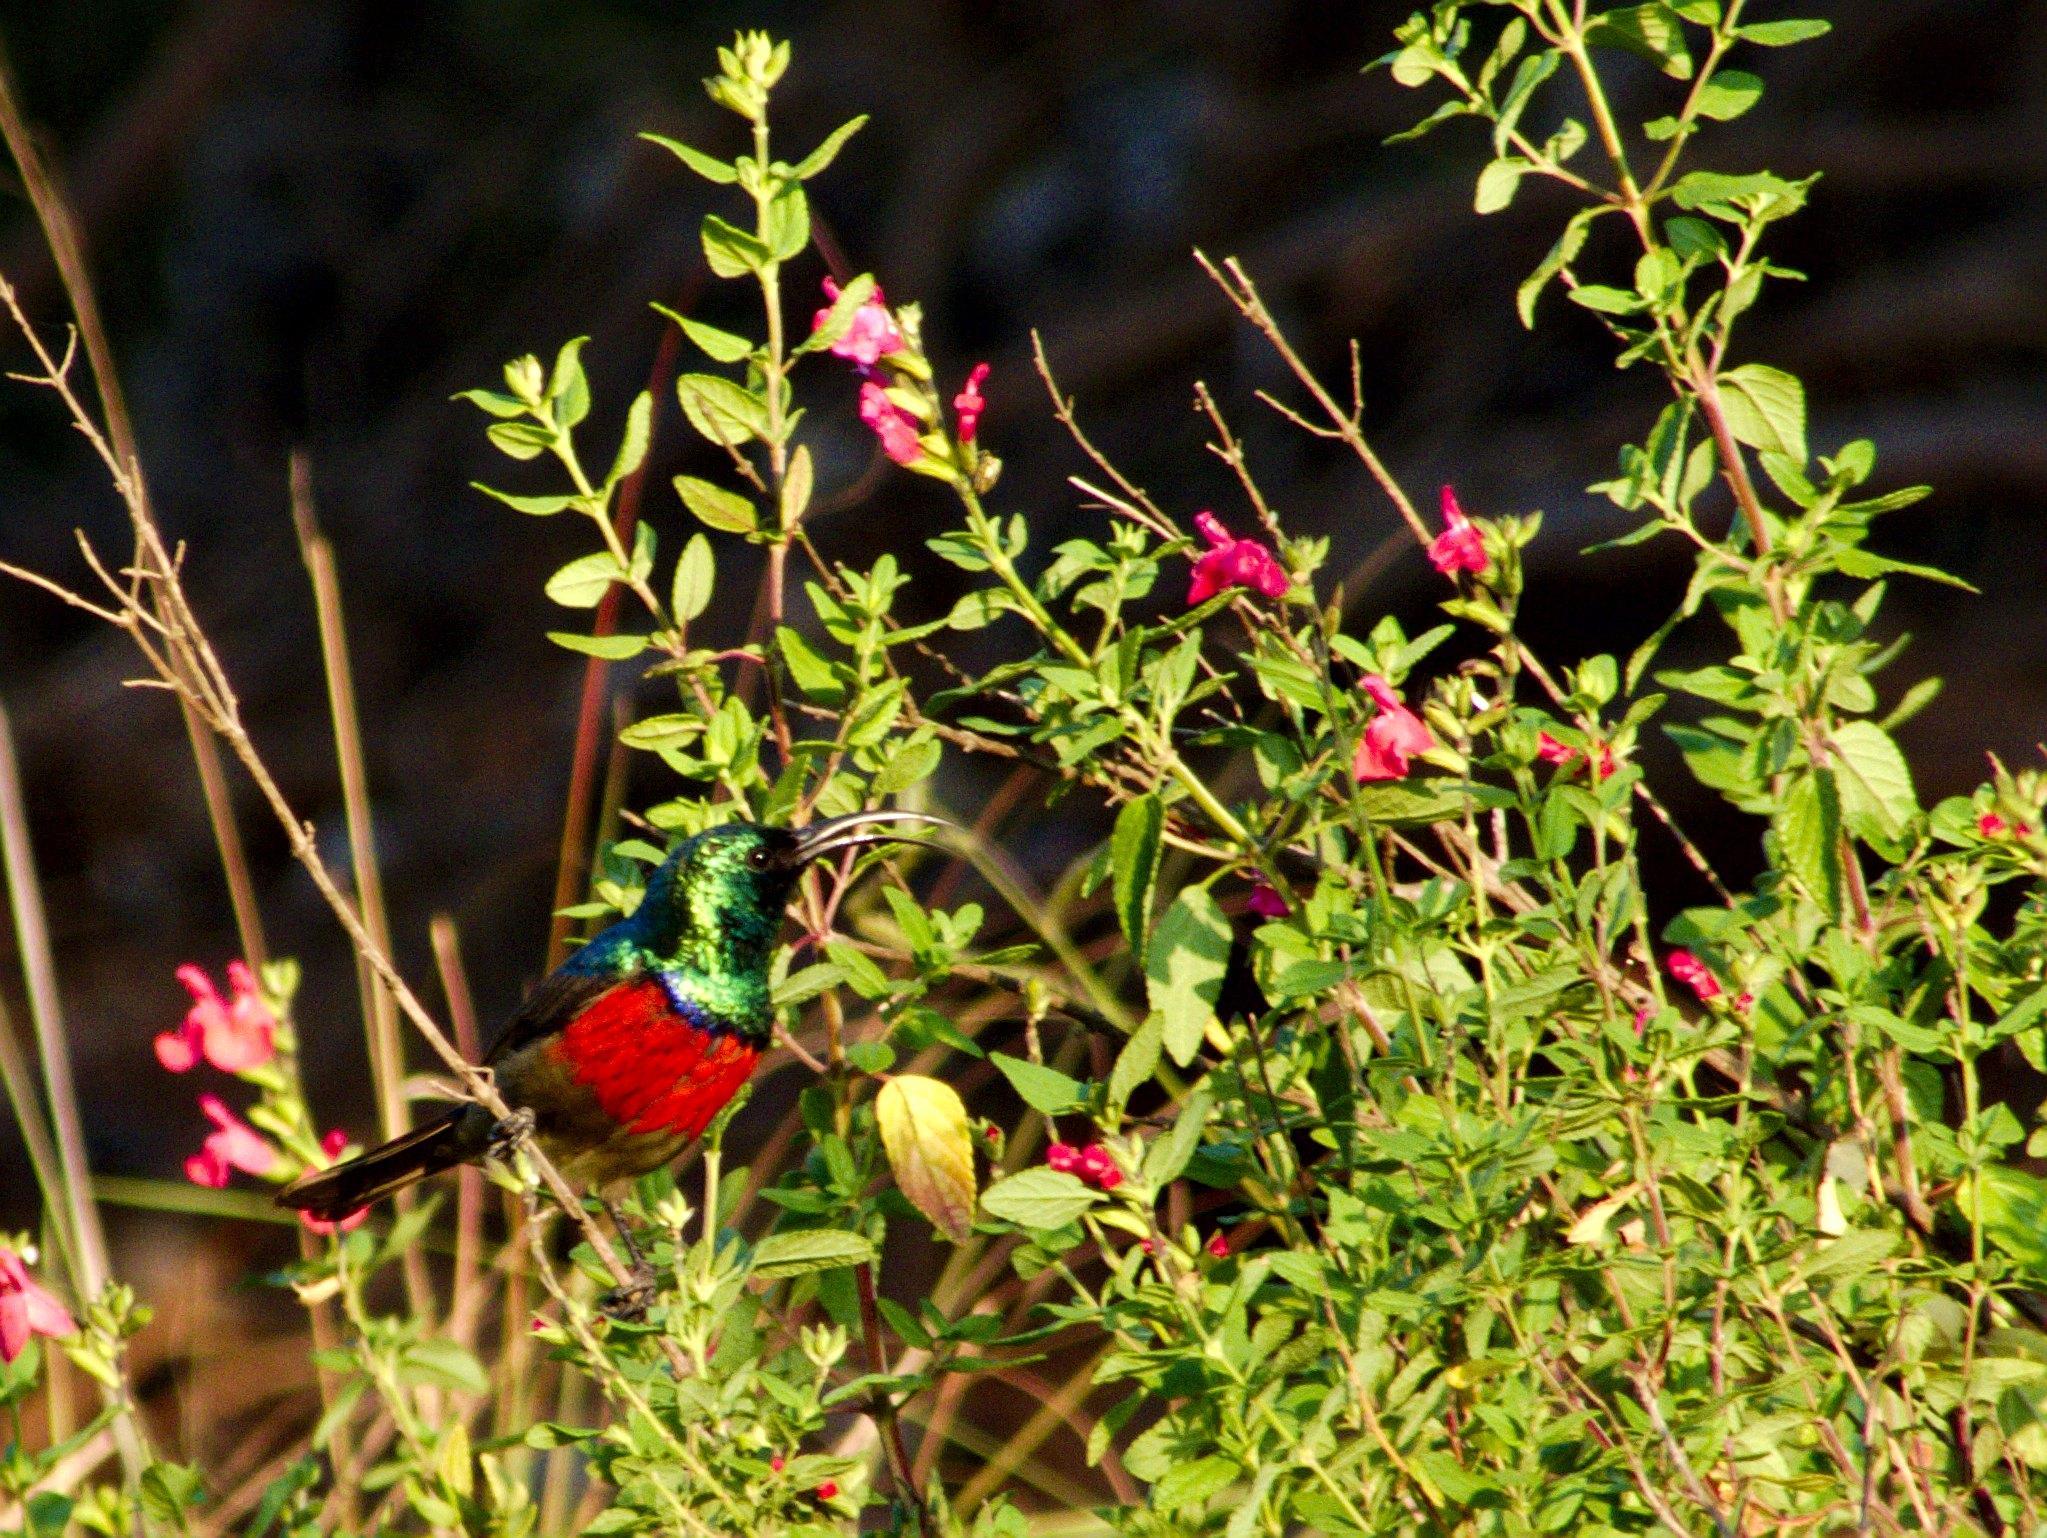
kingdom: Animalia
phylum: Chordata
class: Aves
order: Passeriformes
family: Nectariniidae
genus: Cinnyris
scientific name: Cinnyris afer
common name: Greater double-collared sunbird
